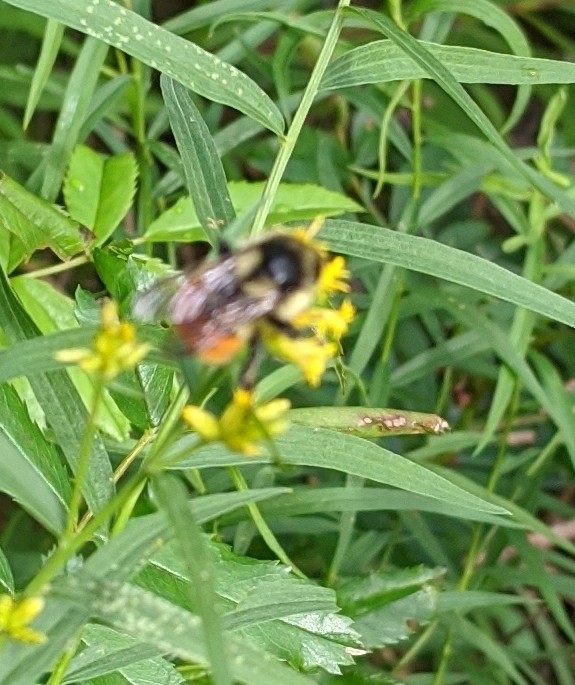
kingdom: Animalia
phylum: Arthropoda
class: Insecta
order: Hymenoptera
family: Apidae
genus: Bombus
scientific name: Bombus ternarius
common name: Tri-colored bumble bee
